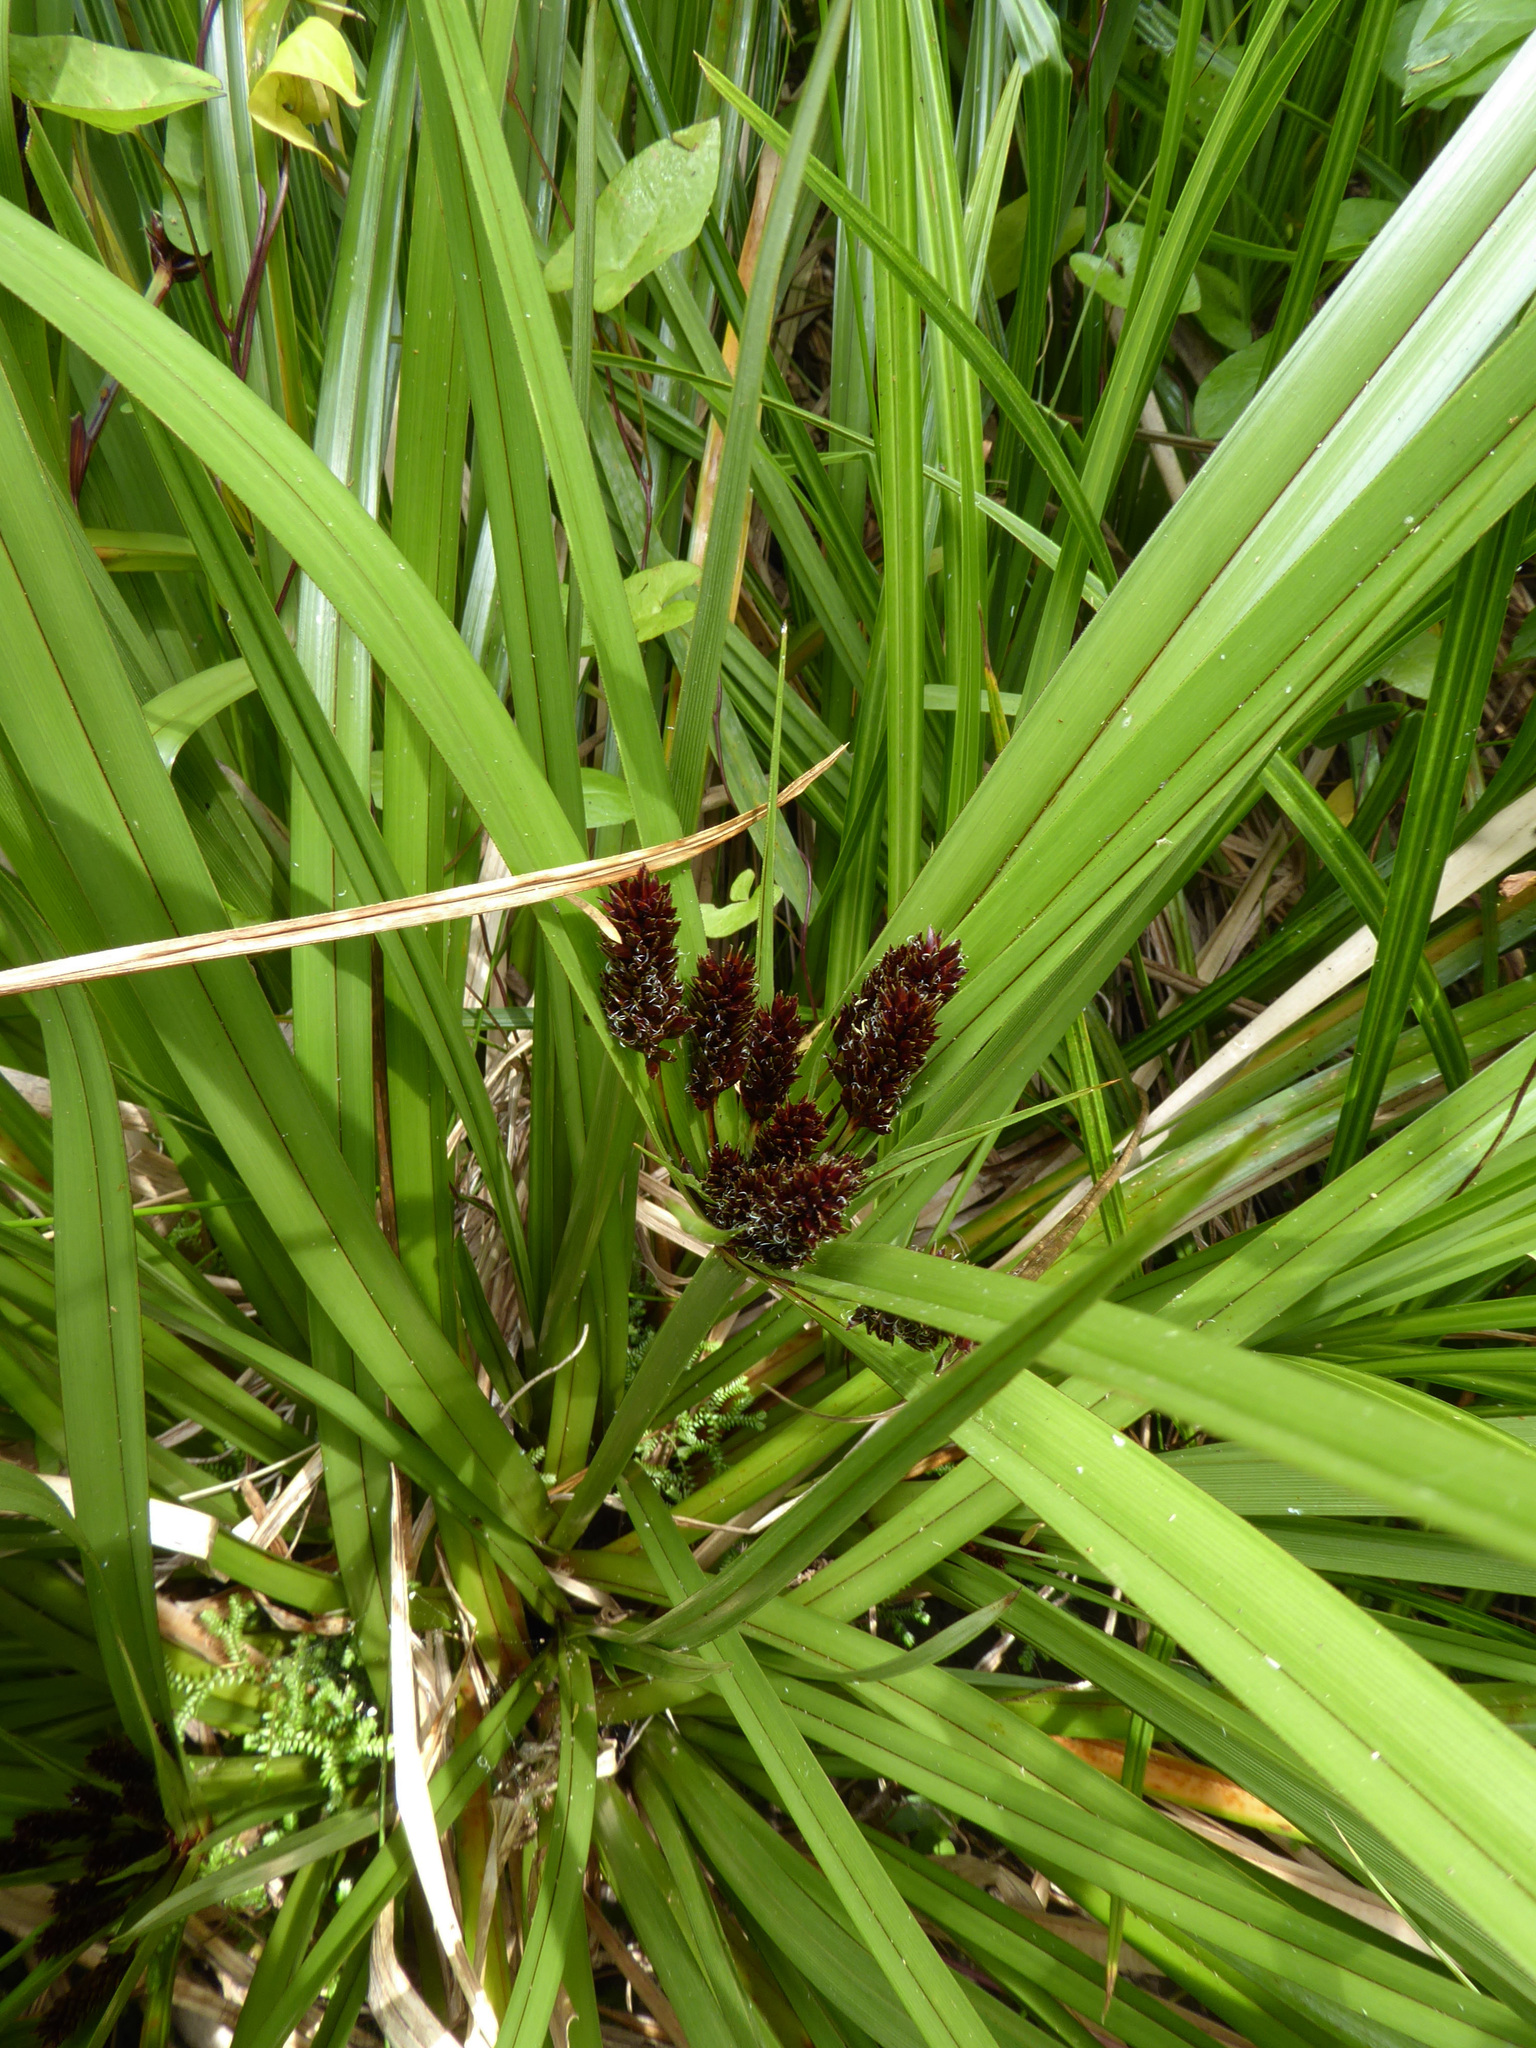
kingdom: Plantae
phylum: Tracheophyta
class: Liliopsida
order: Poales
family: Cyperaceae
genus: Cyperus
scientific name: Cyperus ustulatus
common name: Giant umbrella-sedge
